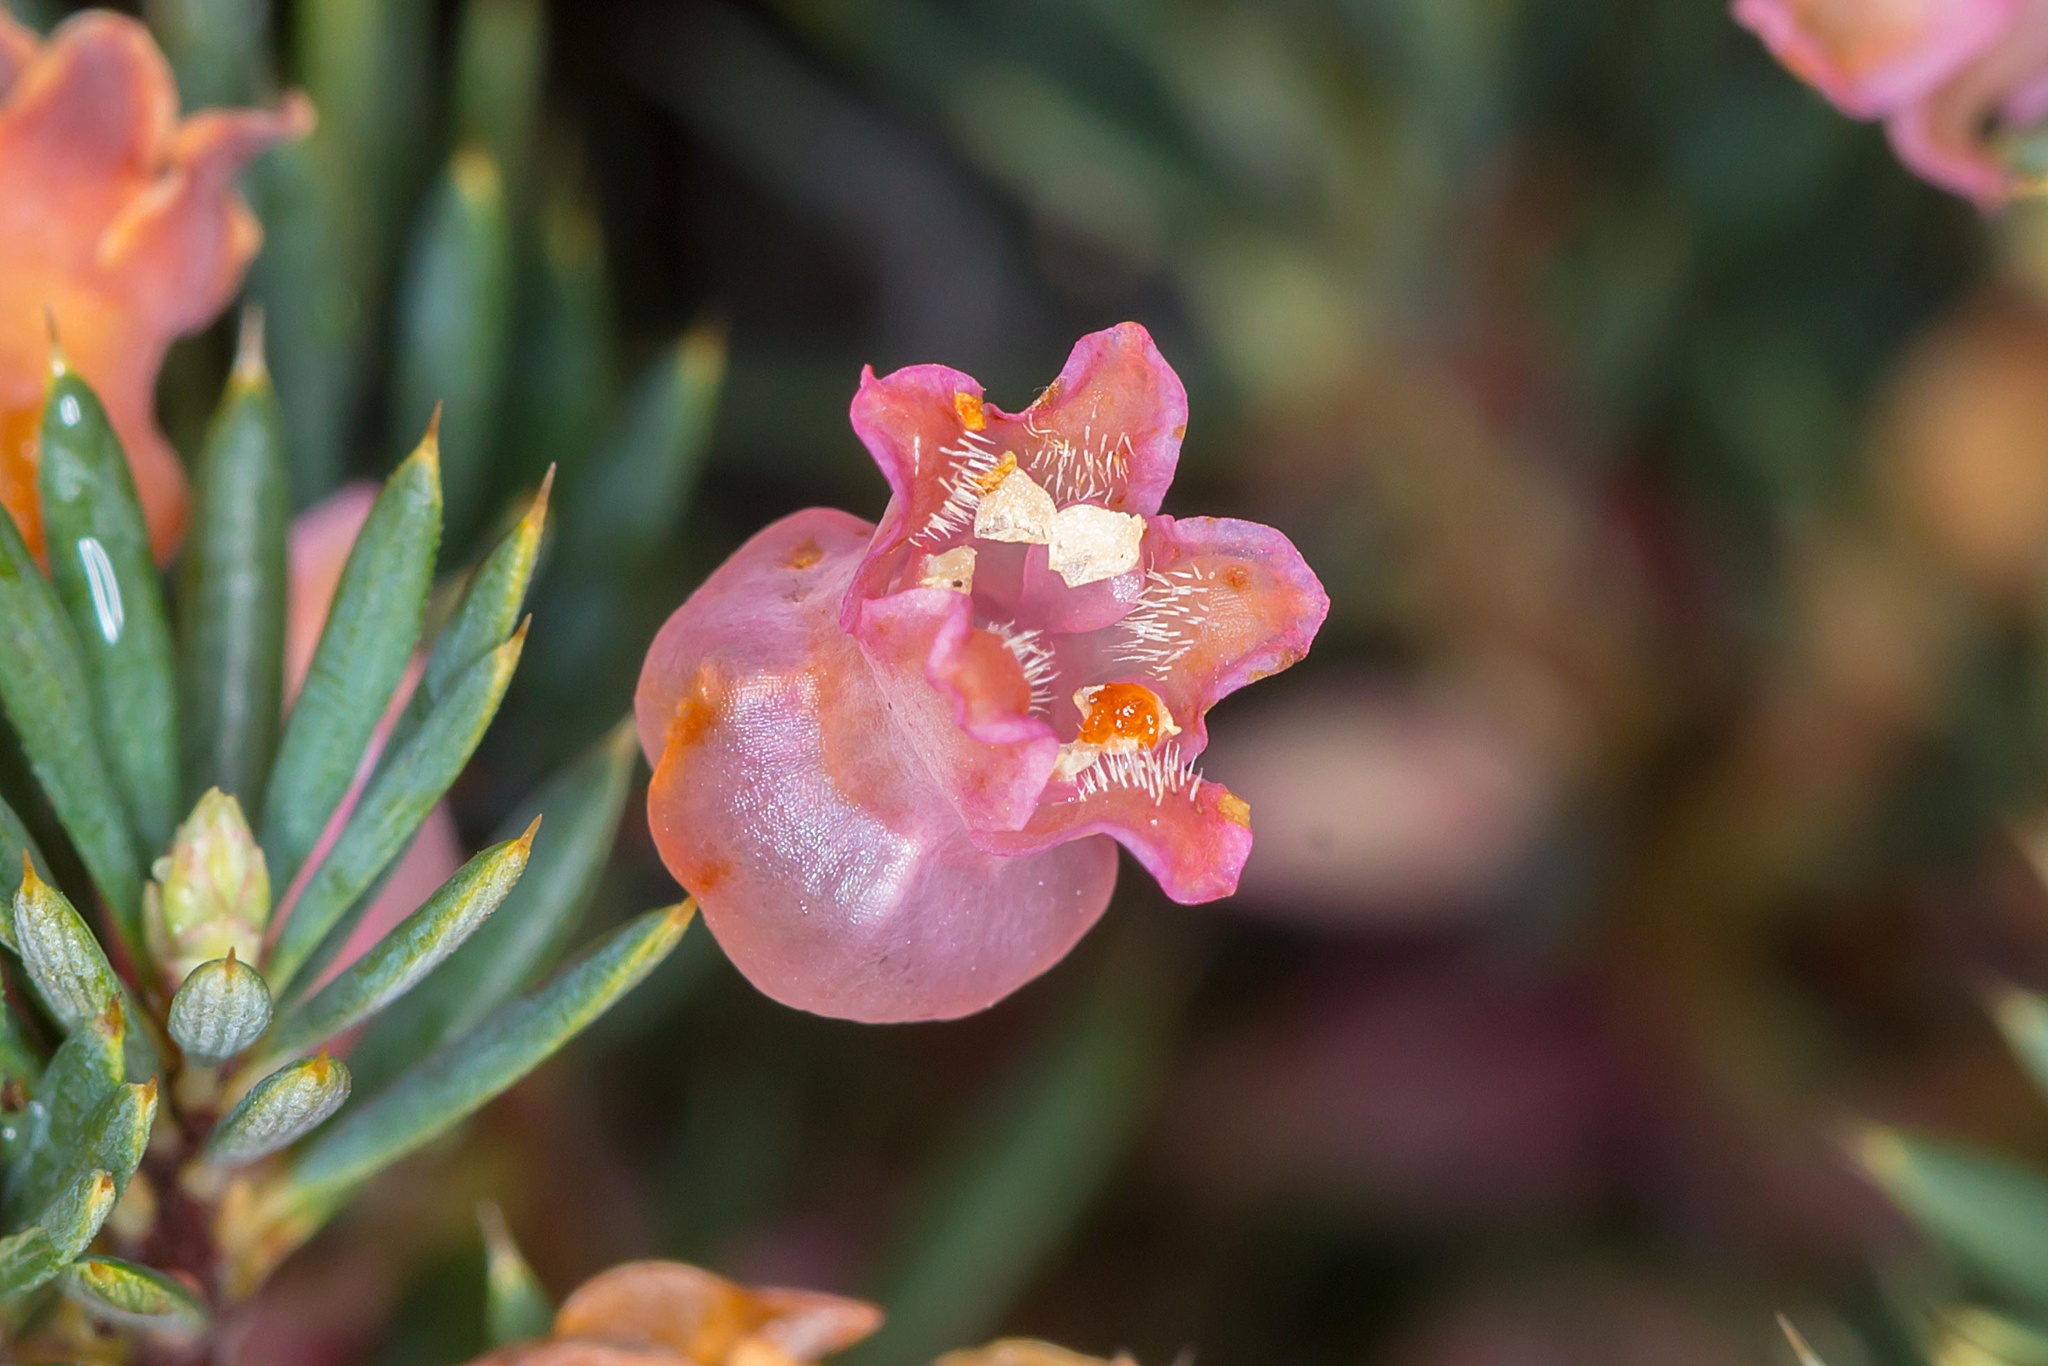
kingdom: Plantae
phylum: Tracheophyta
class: Magnoliopsida
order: Ericales
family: Ericaceae
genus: Brachyloma
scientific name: Brachyloma ericoides
